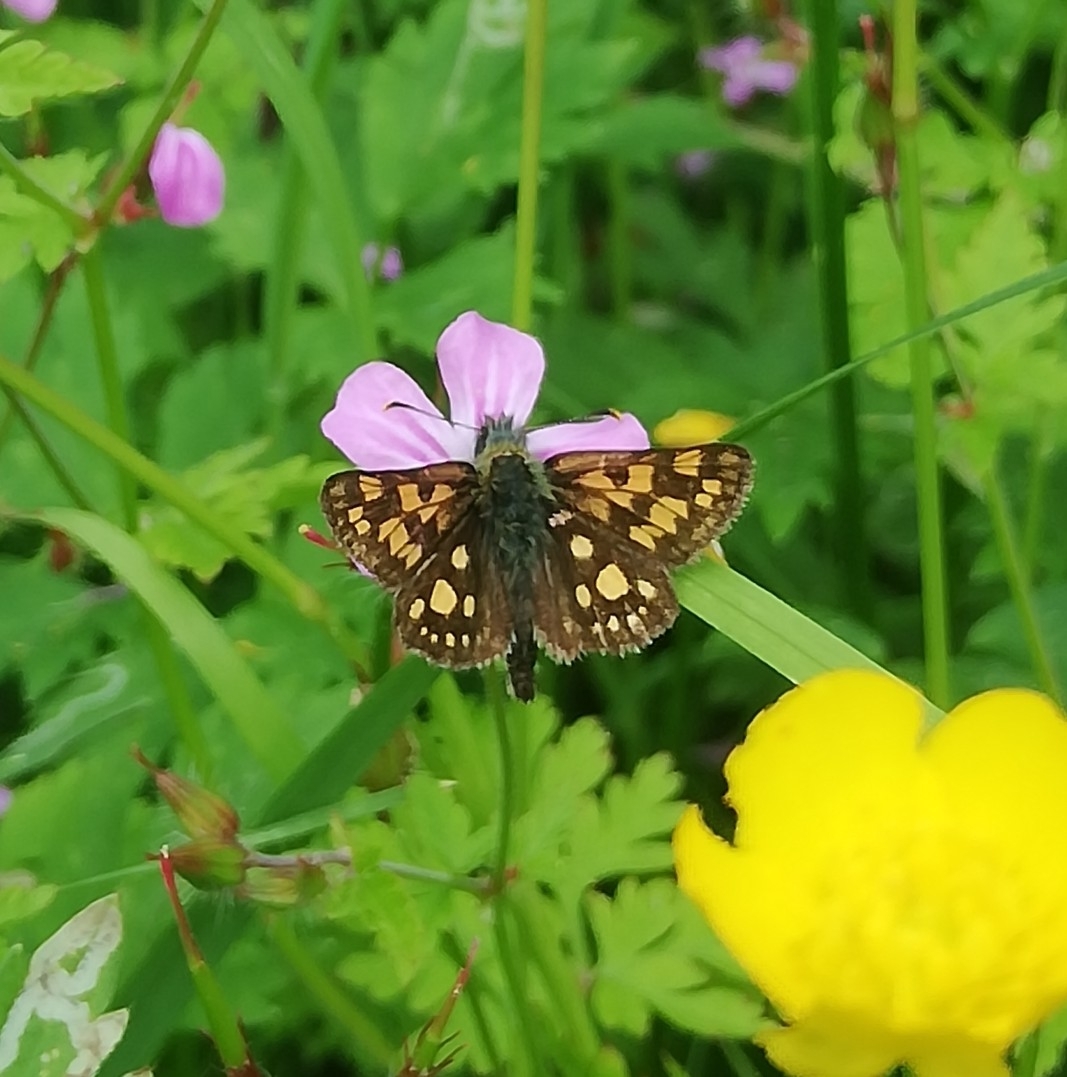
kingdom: Animalia
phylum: Arthropoda
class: Insecta
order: Lepidoptera
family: Hesperiidae
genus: Carterocephalus
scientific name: Carterocephalus palaemon
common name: Chequered skipper
